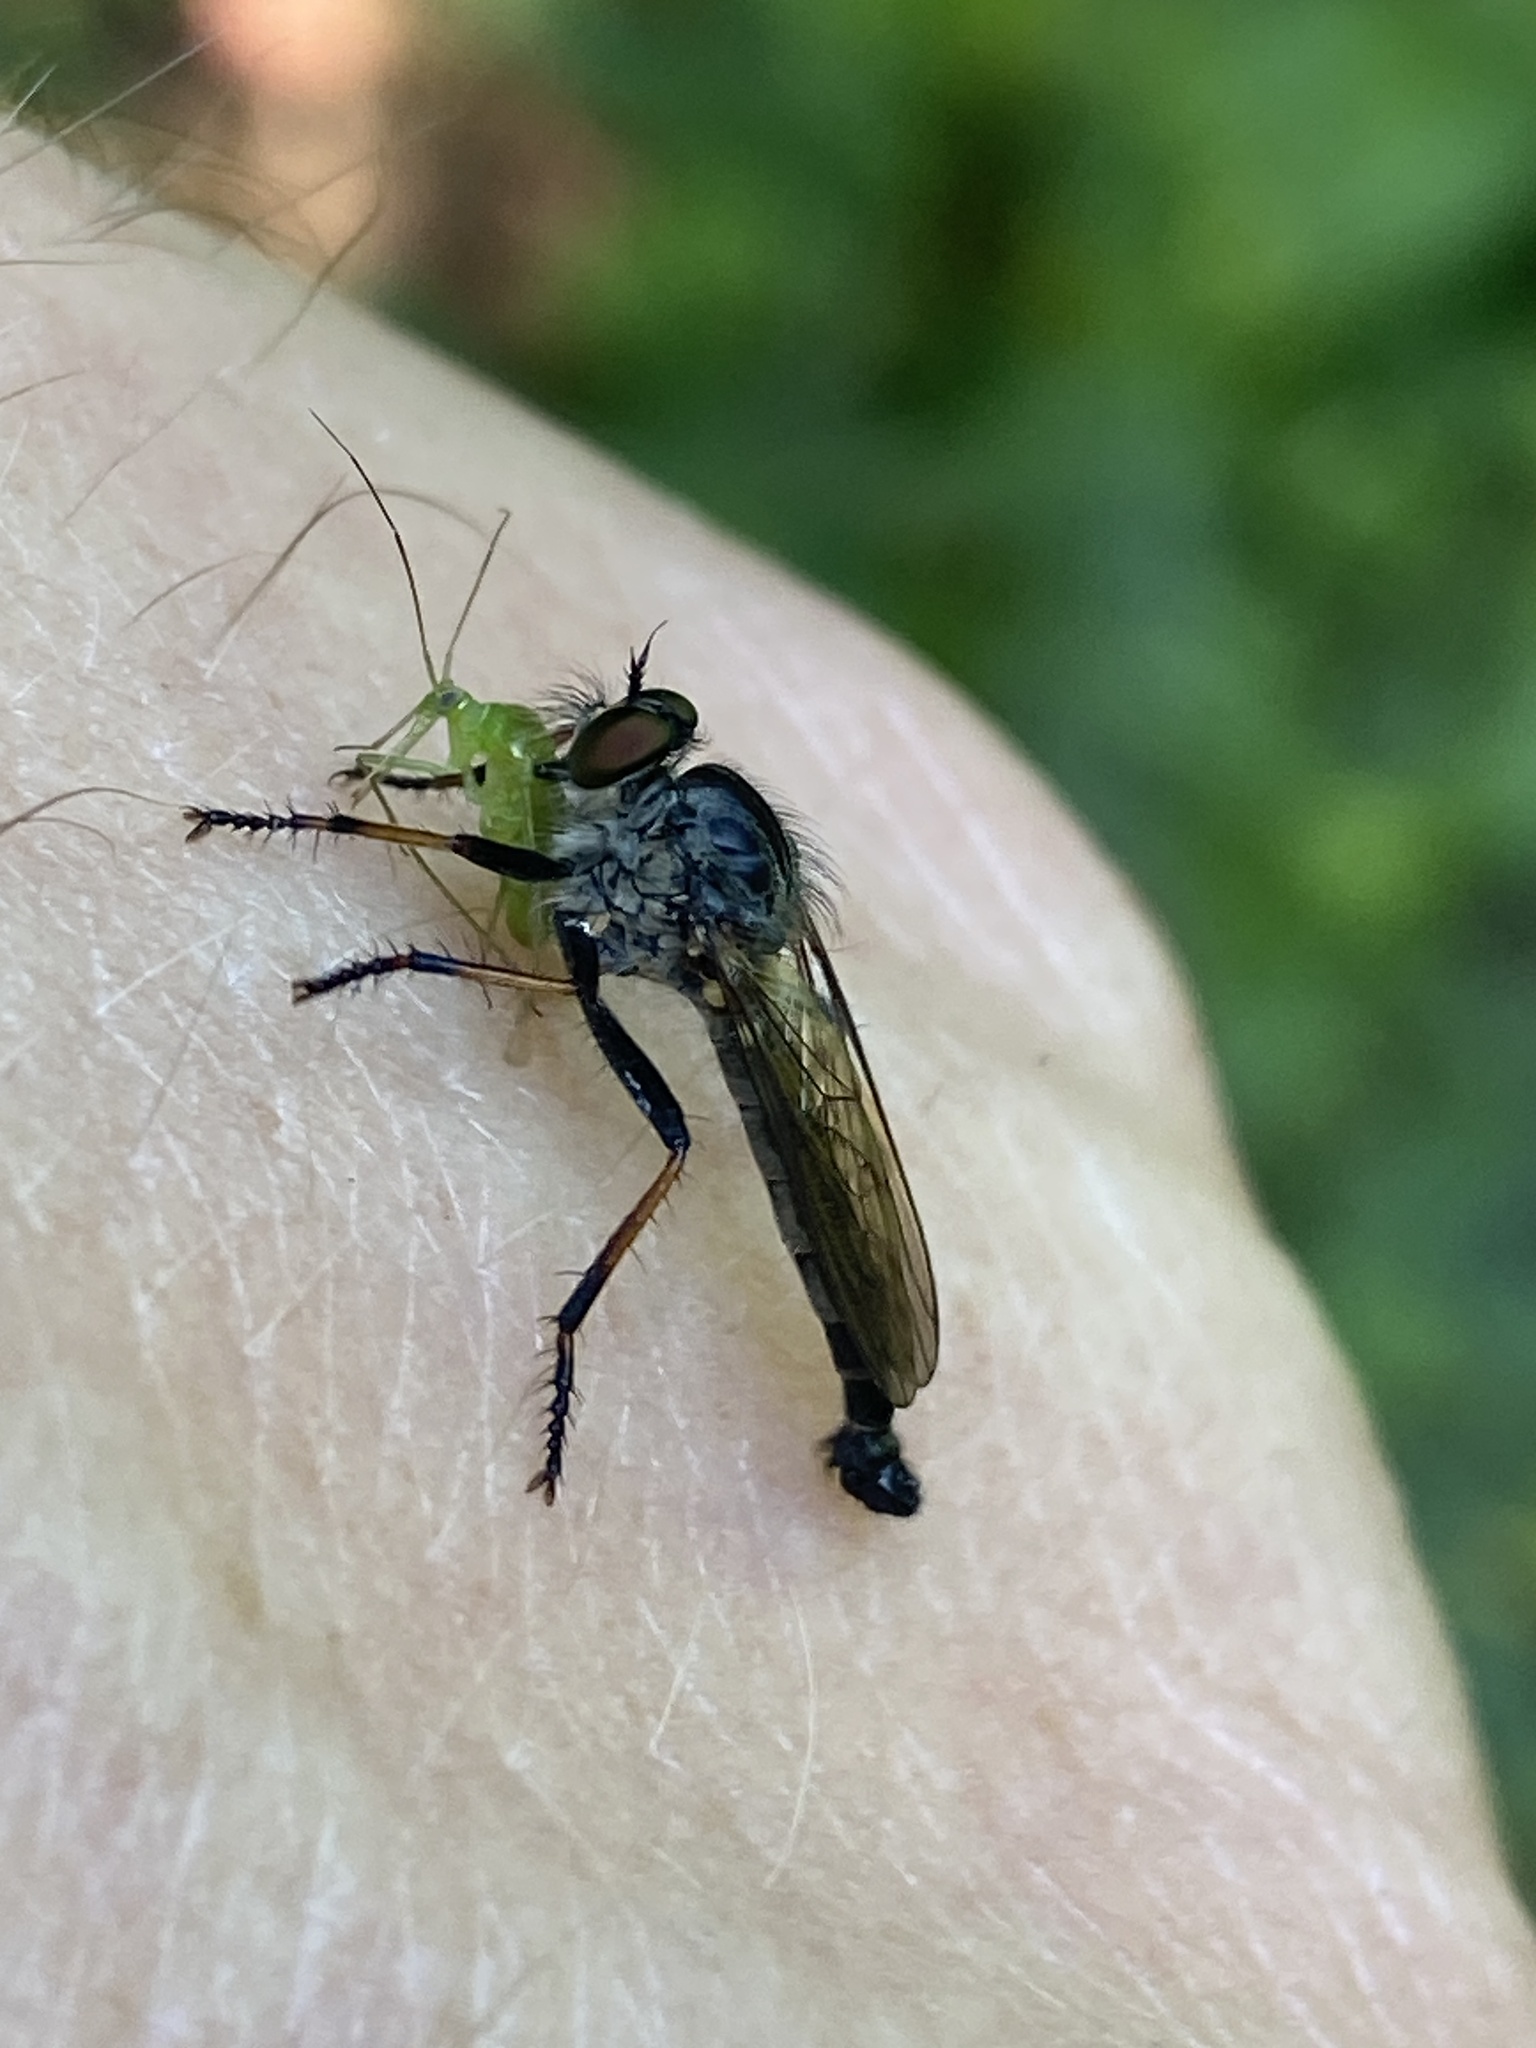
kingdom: Animalia
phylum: Arthropoda
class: Insecta
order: Diptera
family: Asilidae
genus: Neoitamus
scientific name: Neoitamus socius
